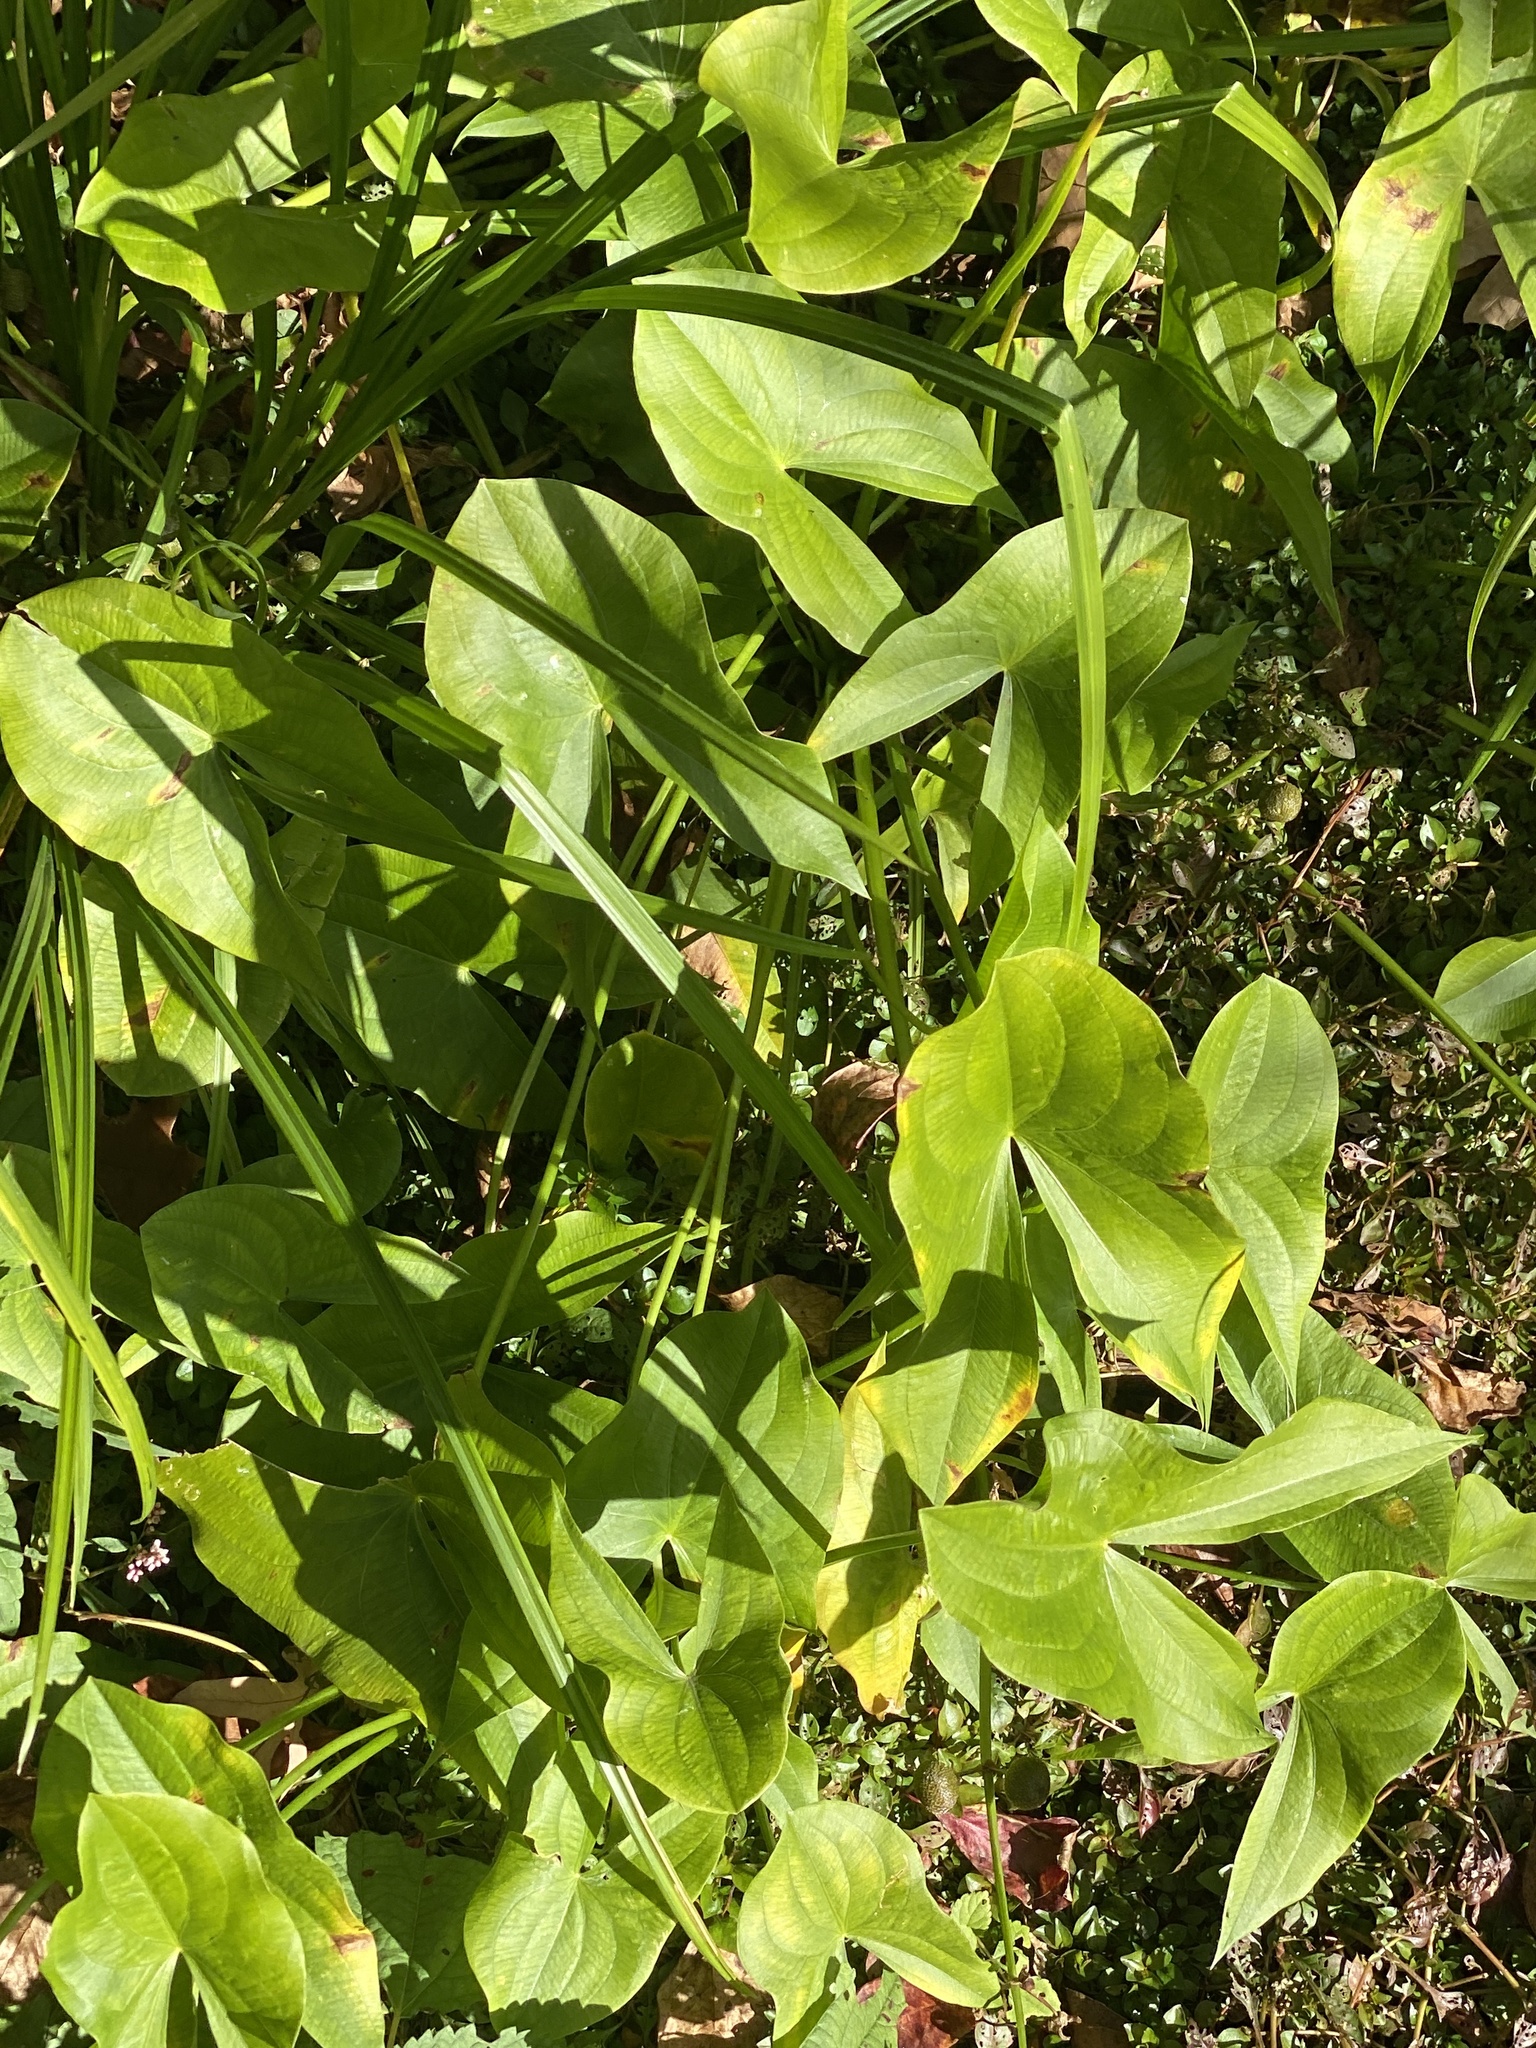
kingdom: Plantae
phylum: Tracheophyta
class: Liliopsida
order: Alismatales
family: Alismataceae
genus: Sagittaria
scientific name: Sagittaria latifolia
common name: Duck-potato
